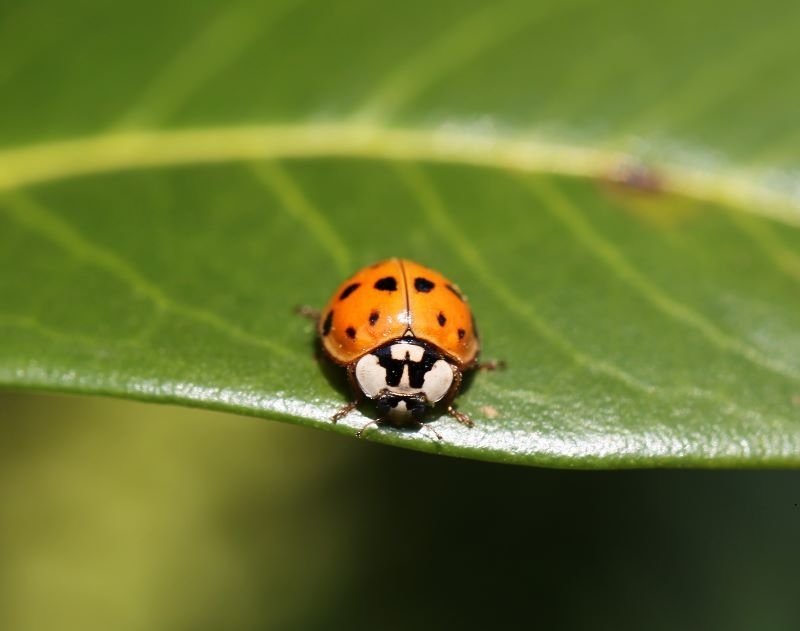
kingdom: Animalia
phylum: Arthropoda
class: Insecta
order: Coleoptera
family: Coccinellidae
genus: Harmonia
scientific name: Harmonia axyridis
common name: Harlequin ladybird
